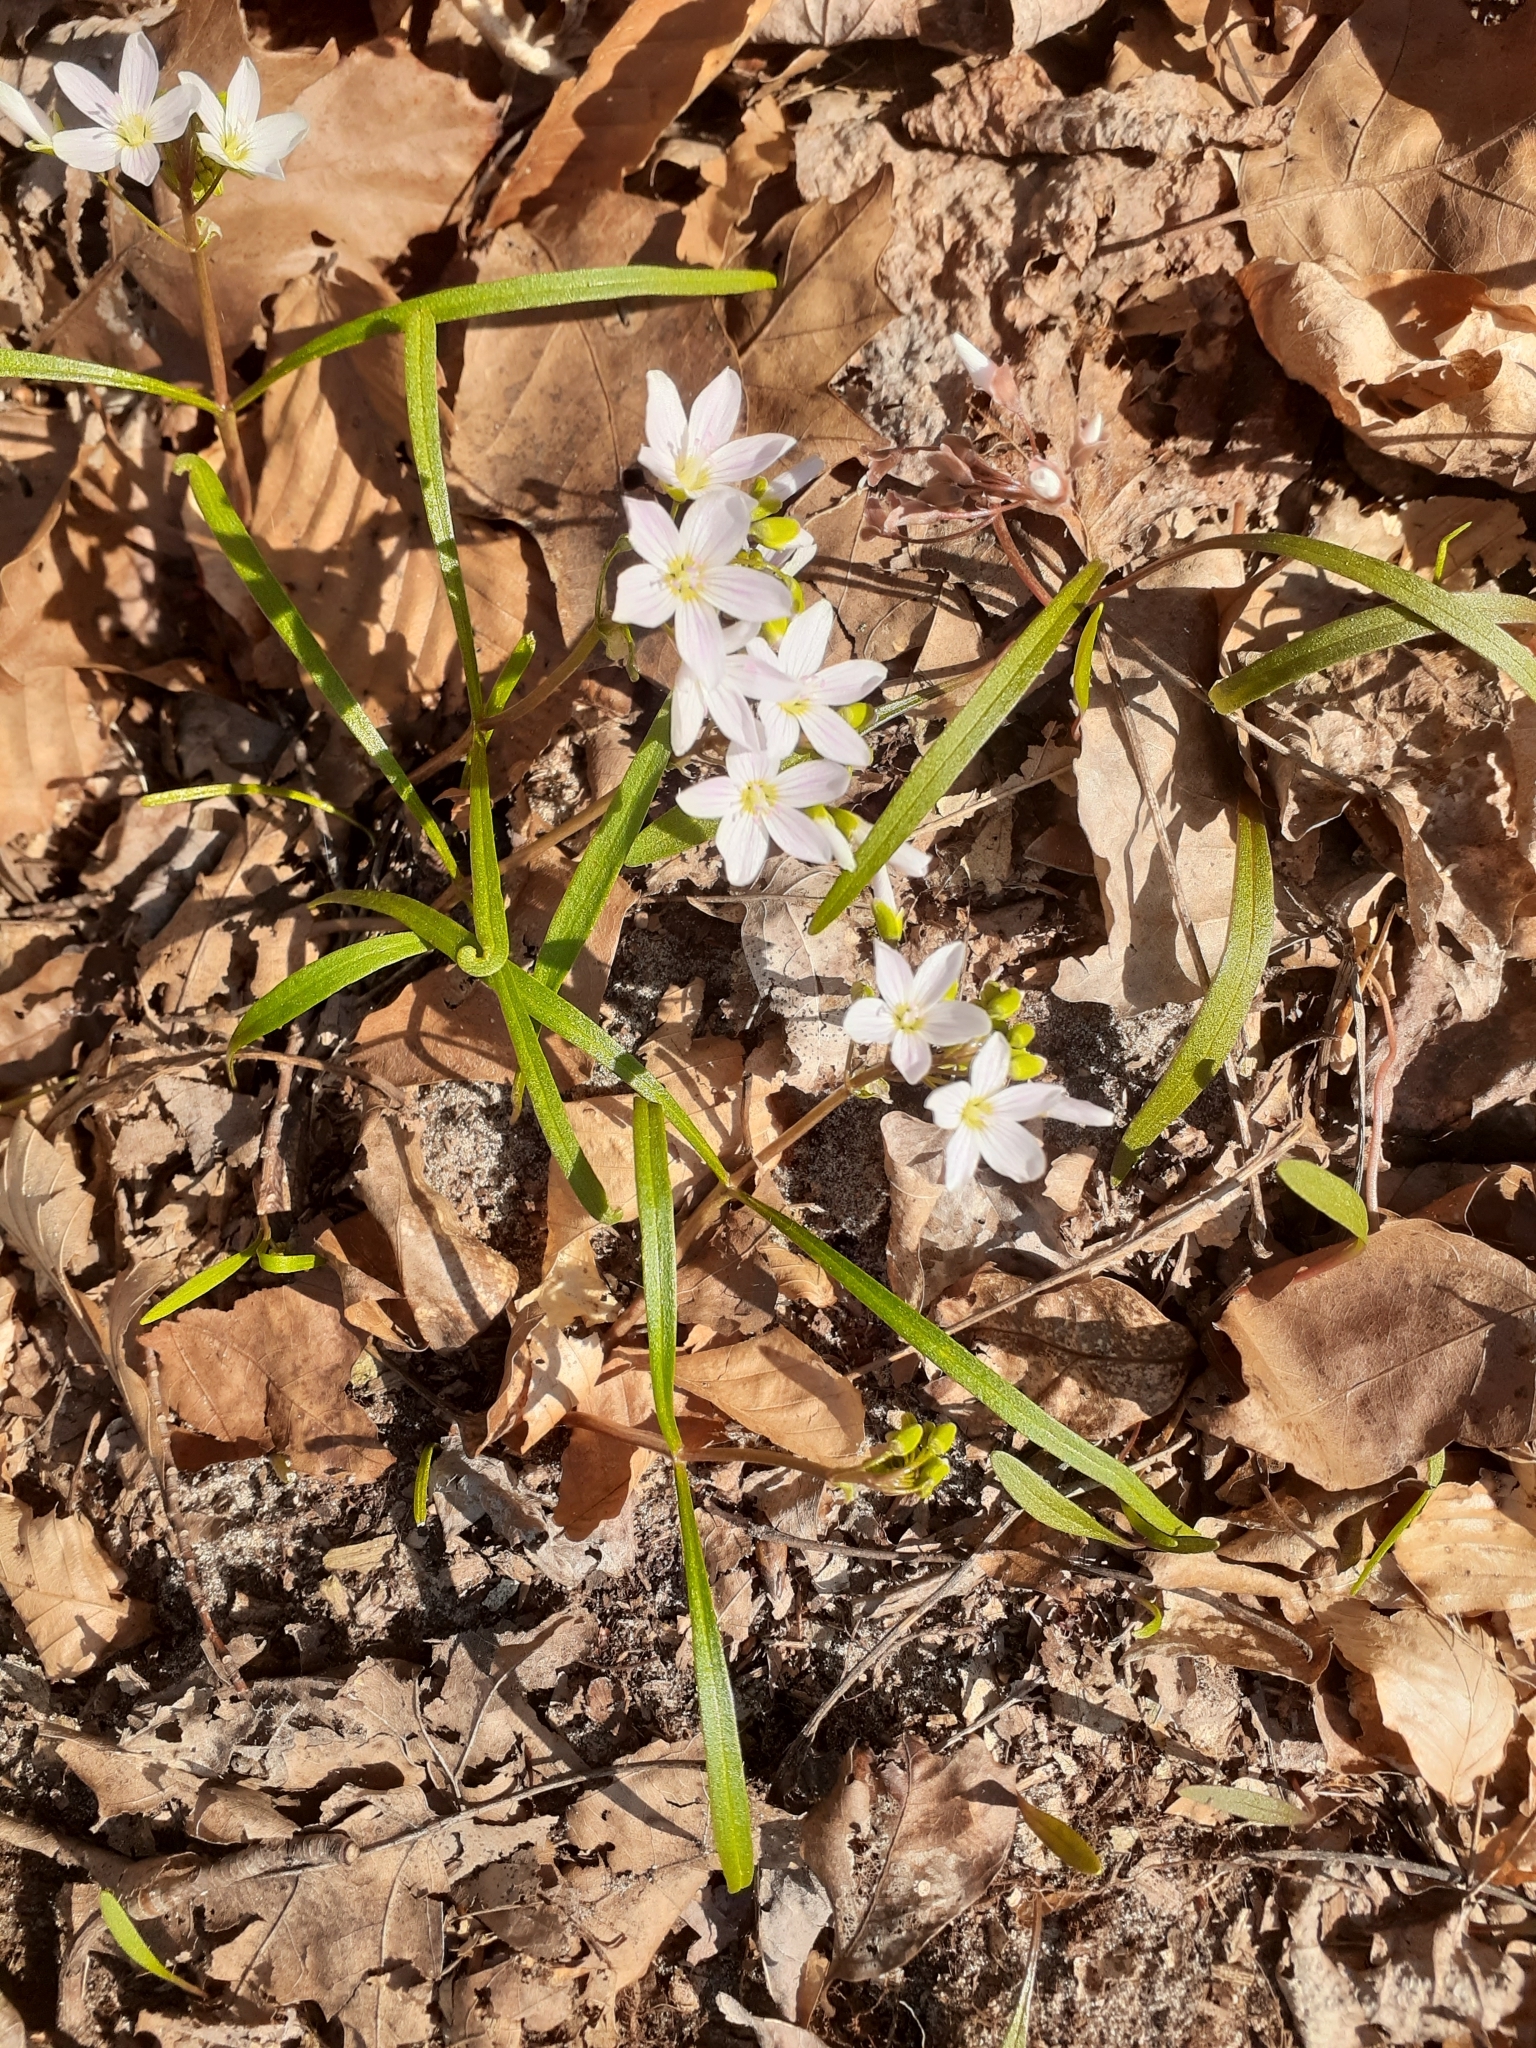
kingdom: Plantae
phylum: Tracheophyta
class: Magnoliopsida
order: Caryophyllales
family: Montiaceae
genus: Claytonia
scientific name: Claytonia virginica
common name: Virginia springbeauty
